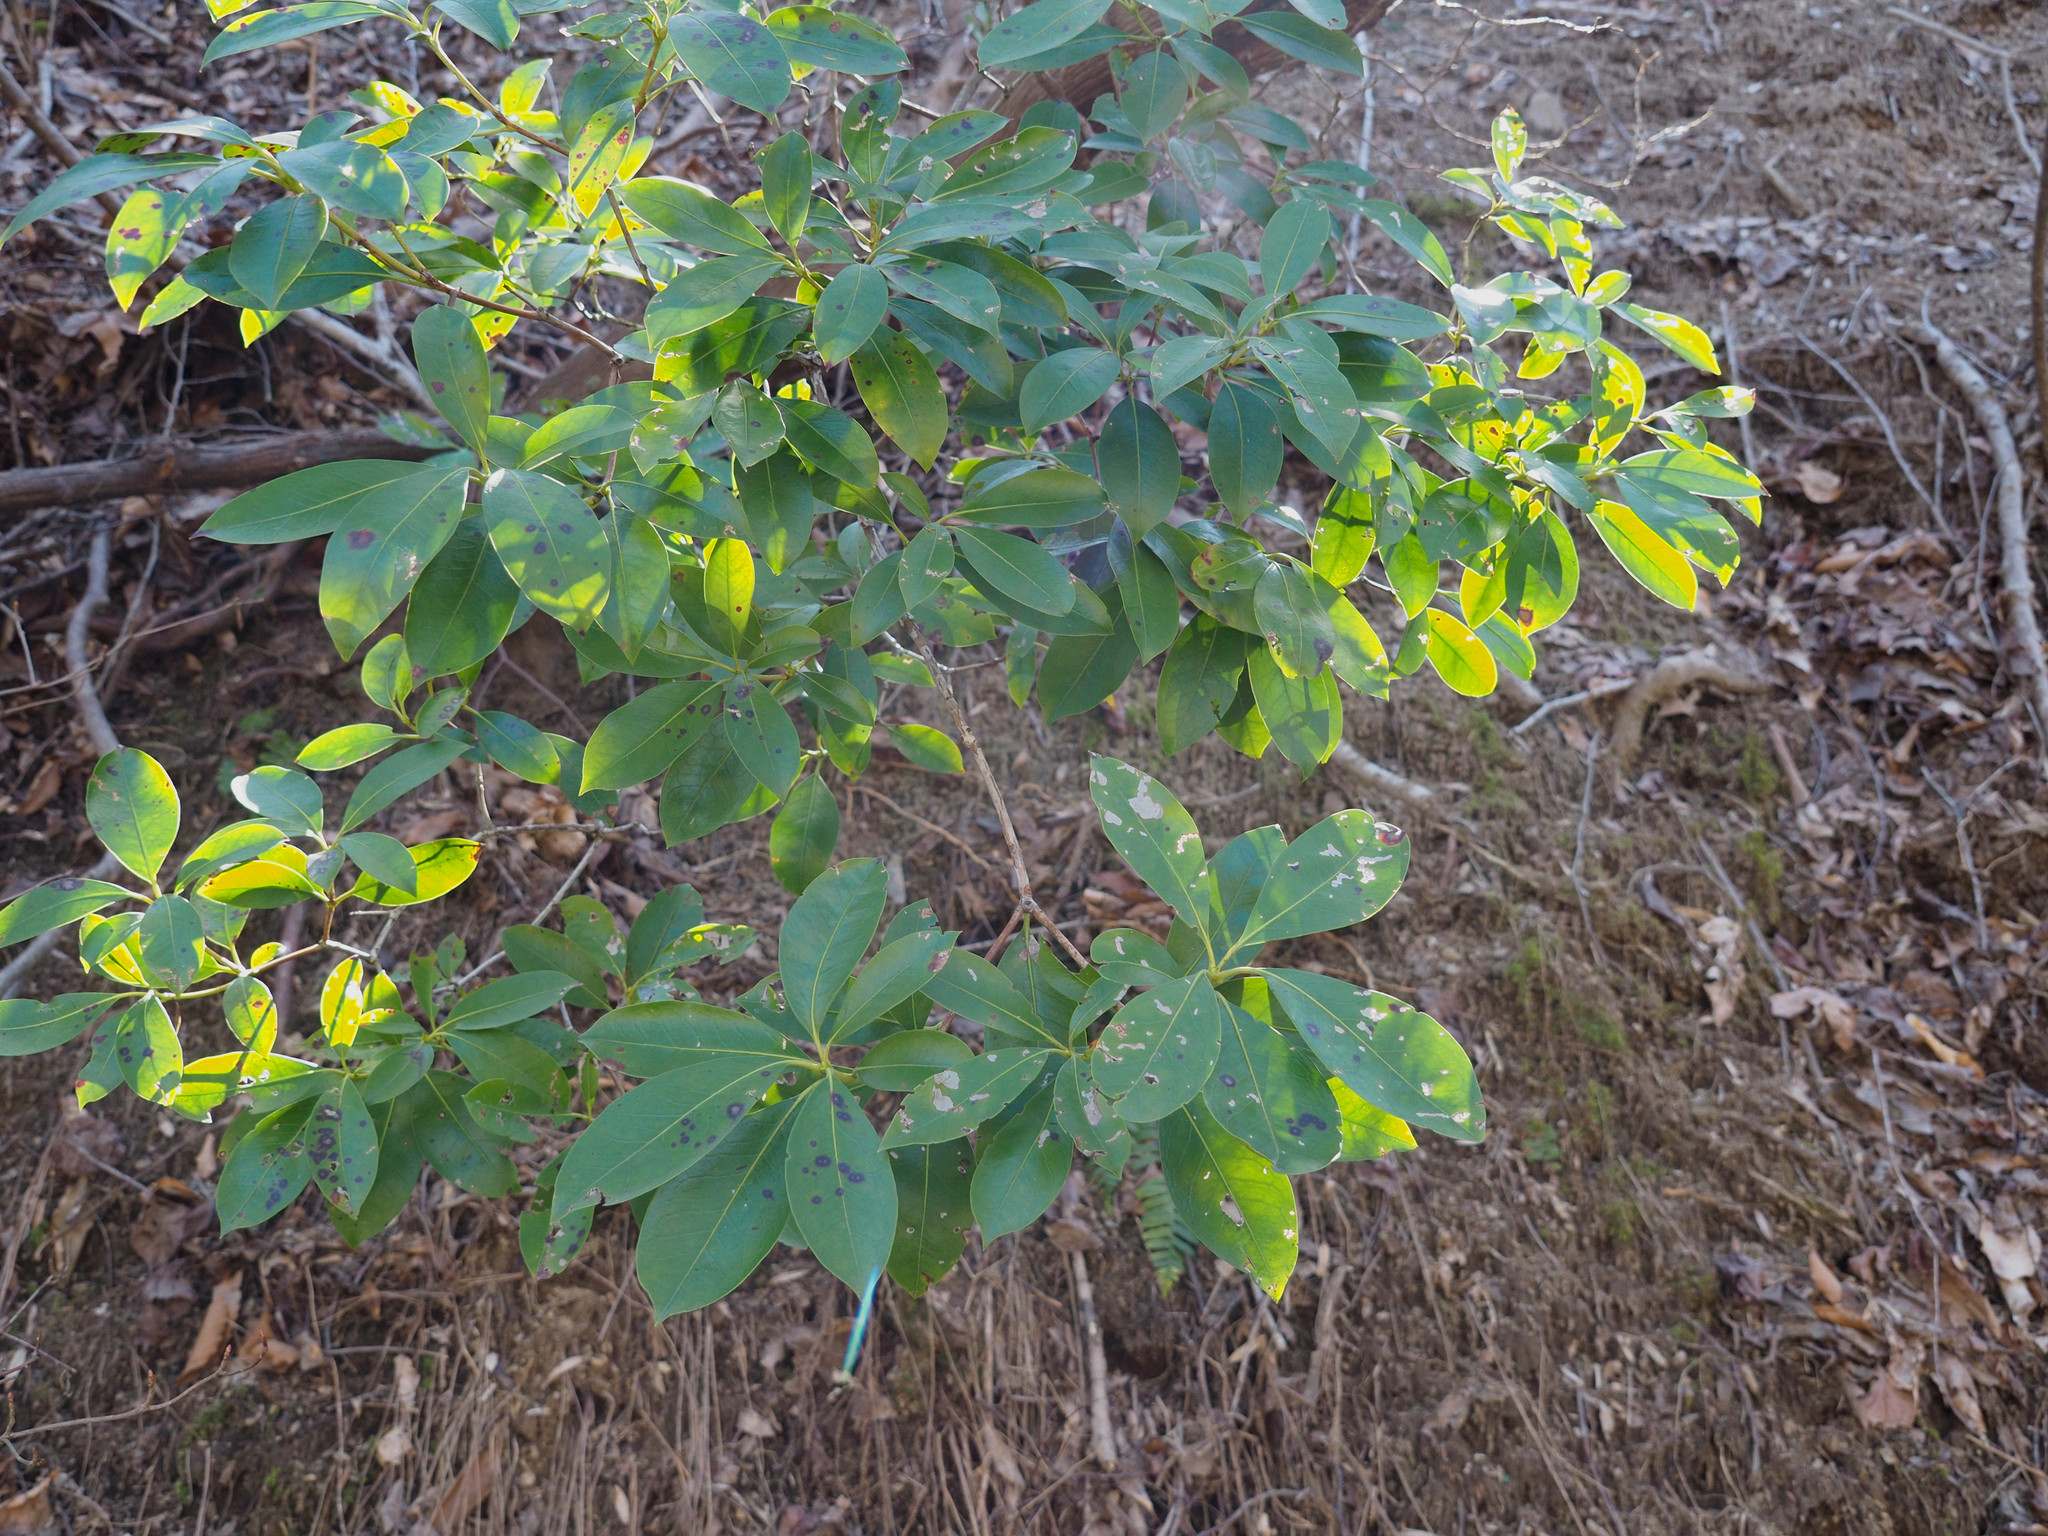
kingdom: Plantae
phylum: Tracheophyta
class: Magnoliopsida
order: Ericales
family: Ericaceae
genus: Kalmia
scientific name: Kalmia latifolia
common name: Mountain-laurel
